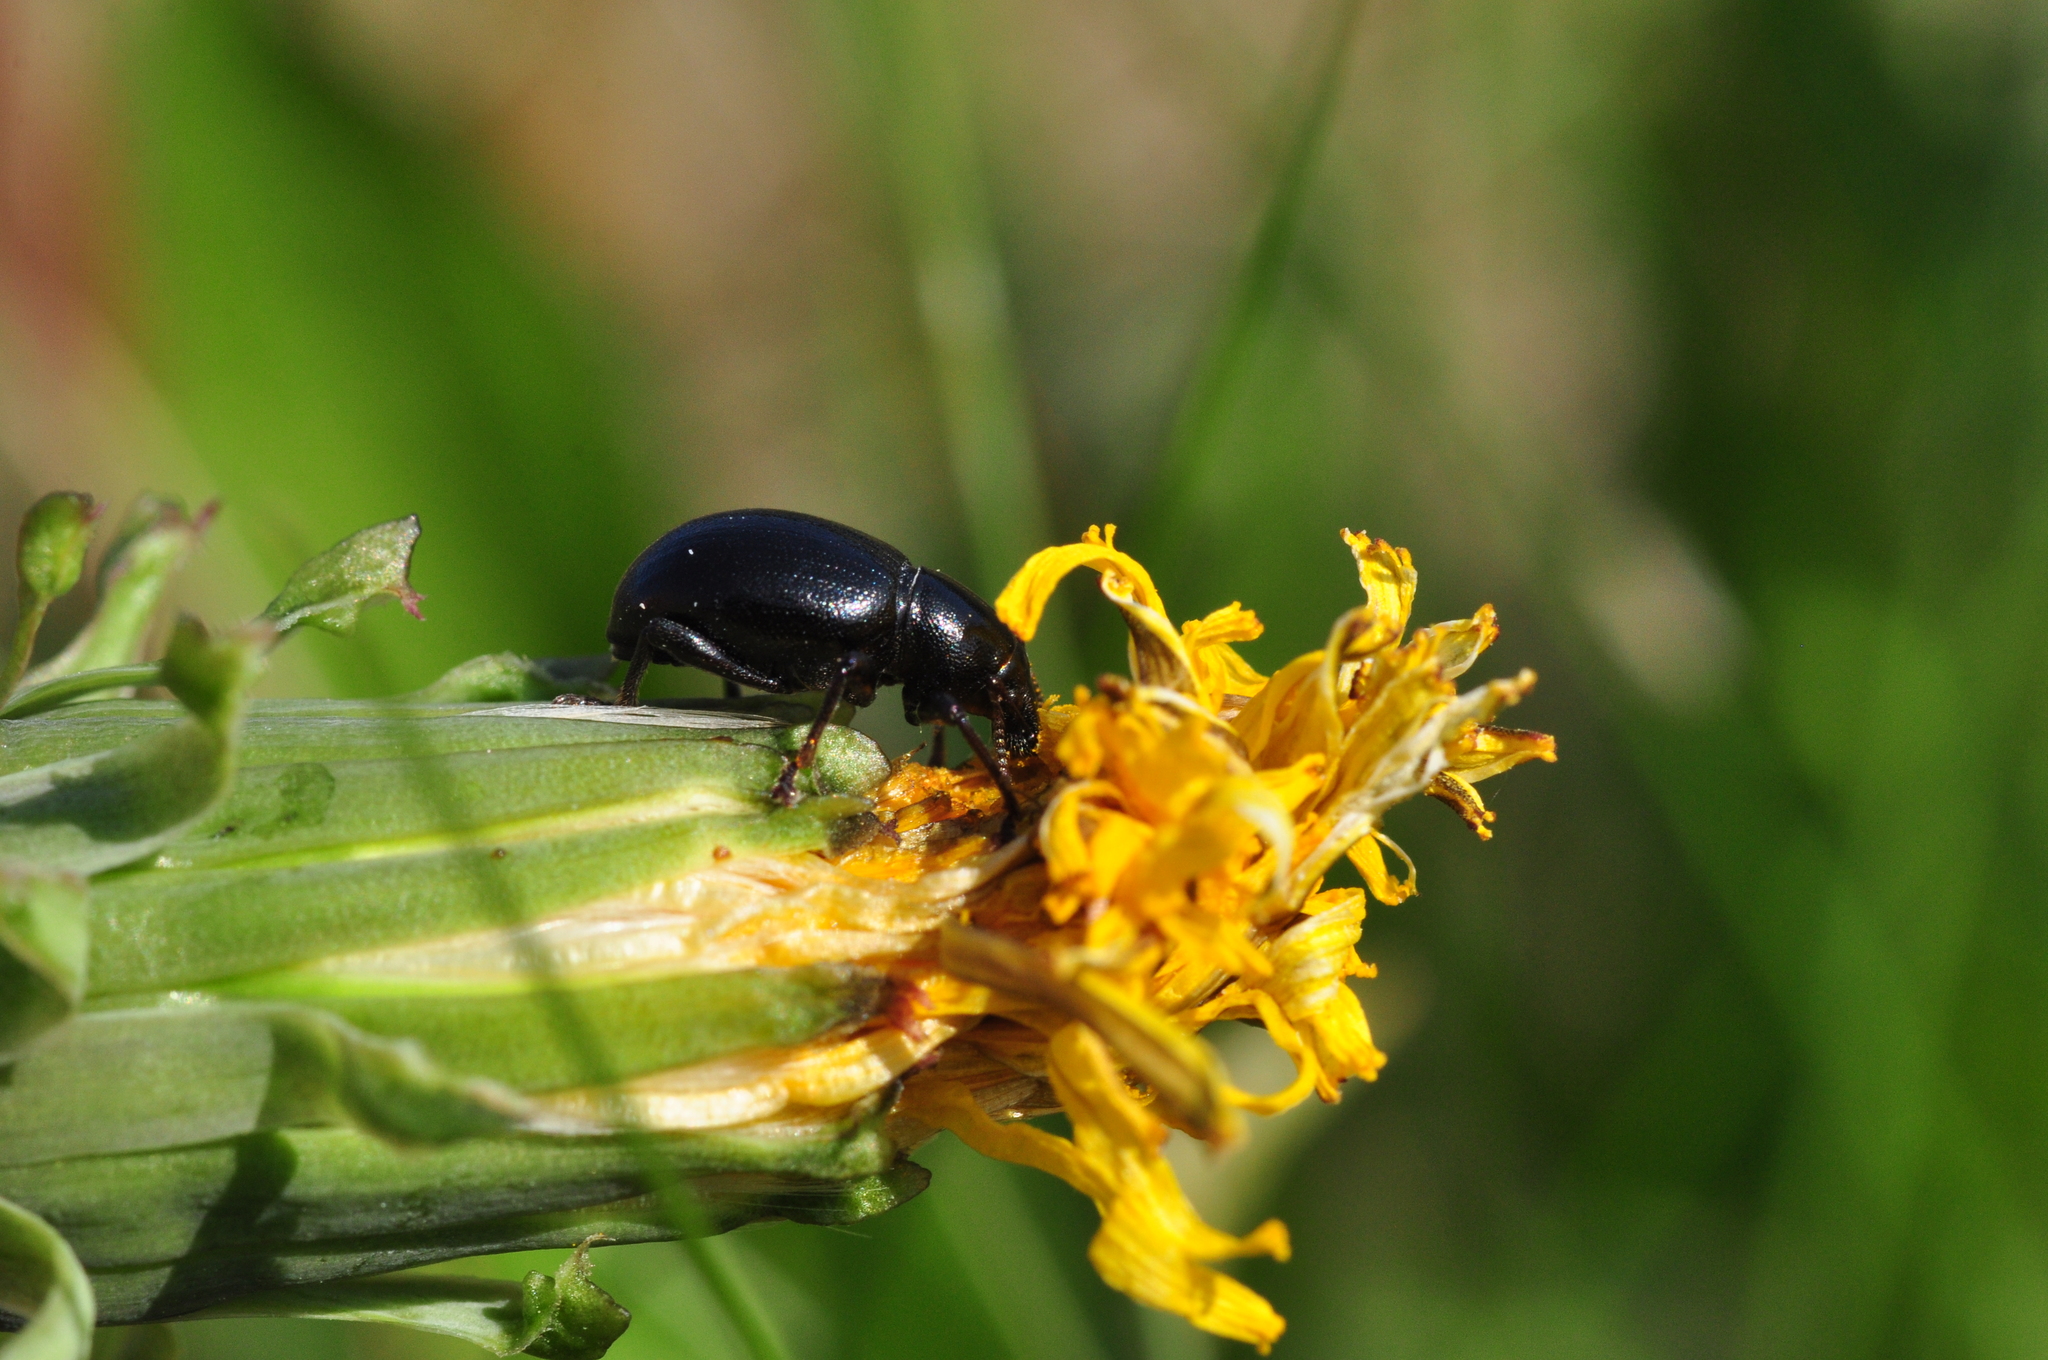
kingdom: Animalia
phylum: Arthropoda
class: Insecta
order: Coleoptera
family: Curculionidae
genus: Otiorhynchus
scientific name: Otiorhynchus arcticus
